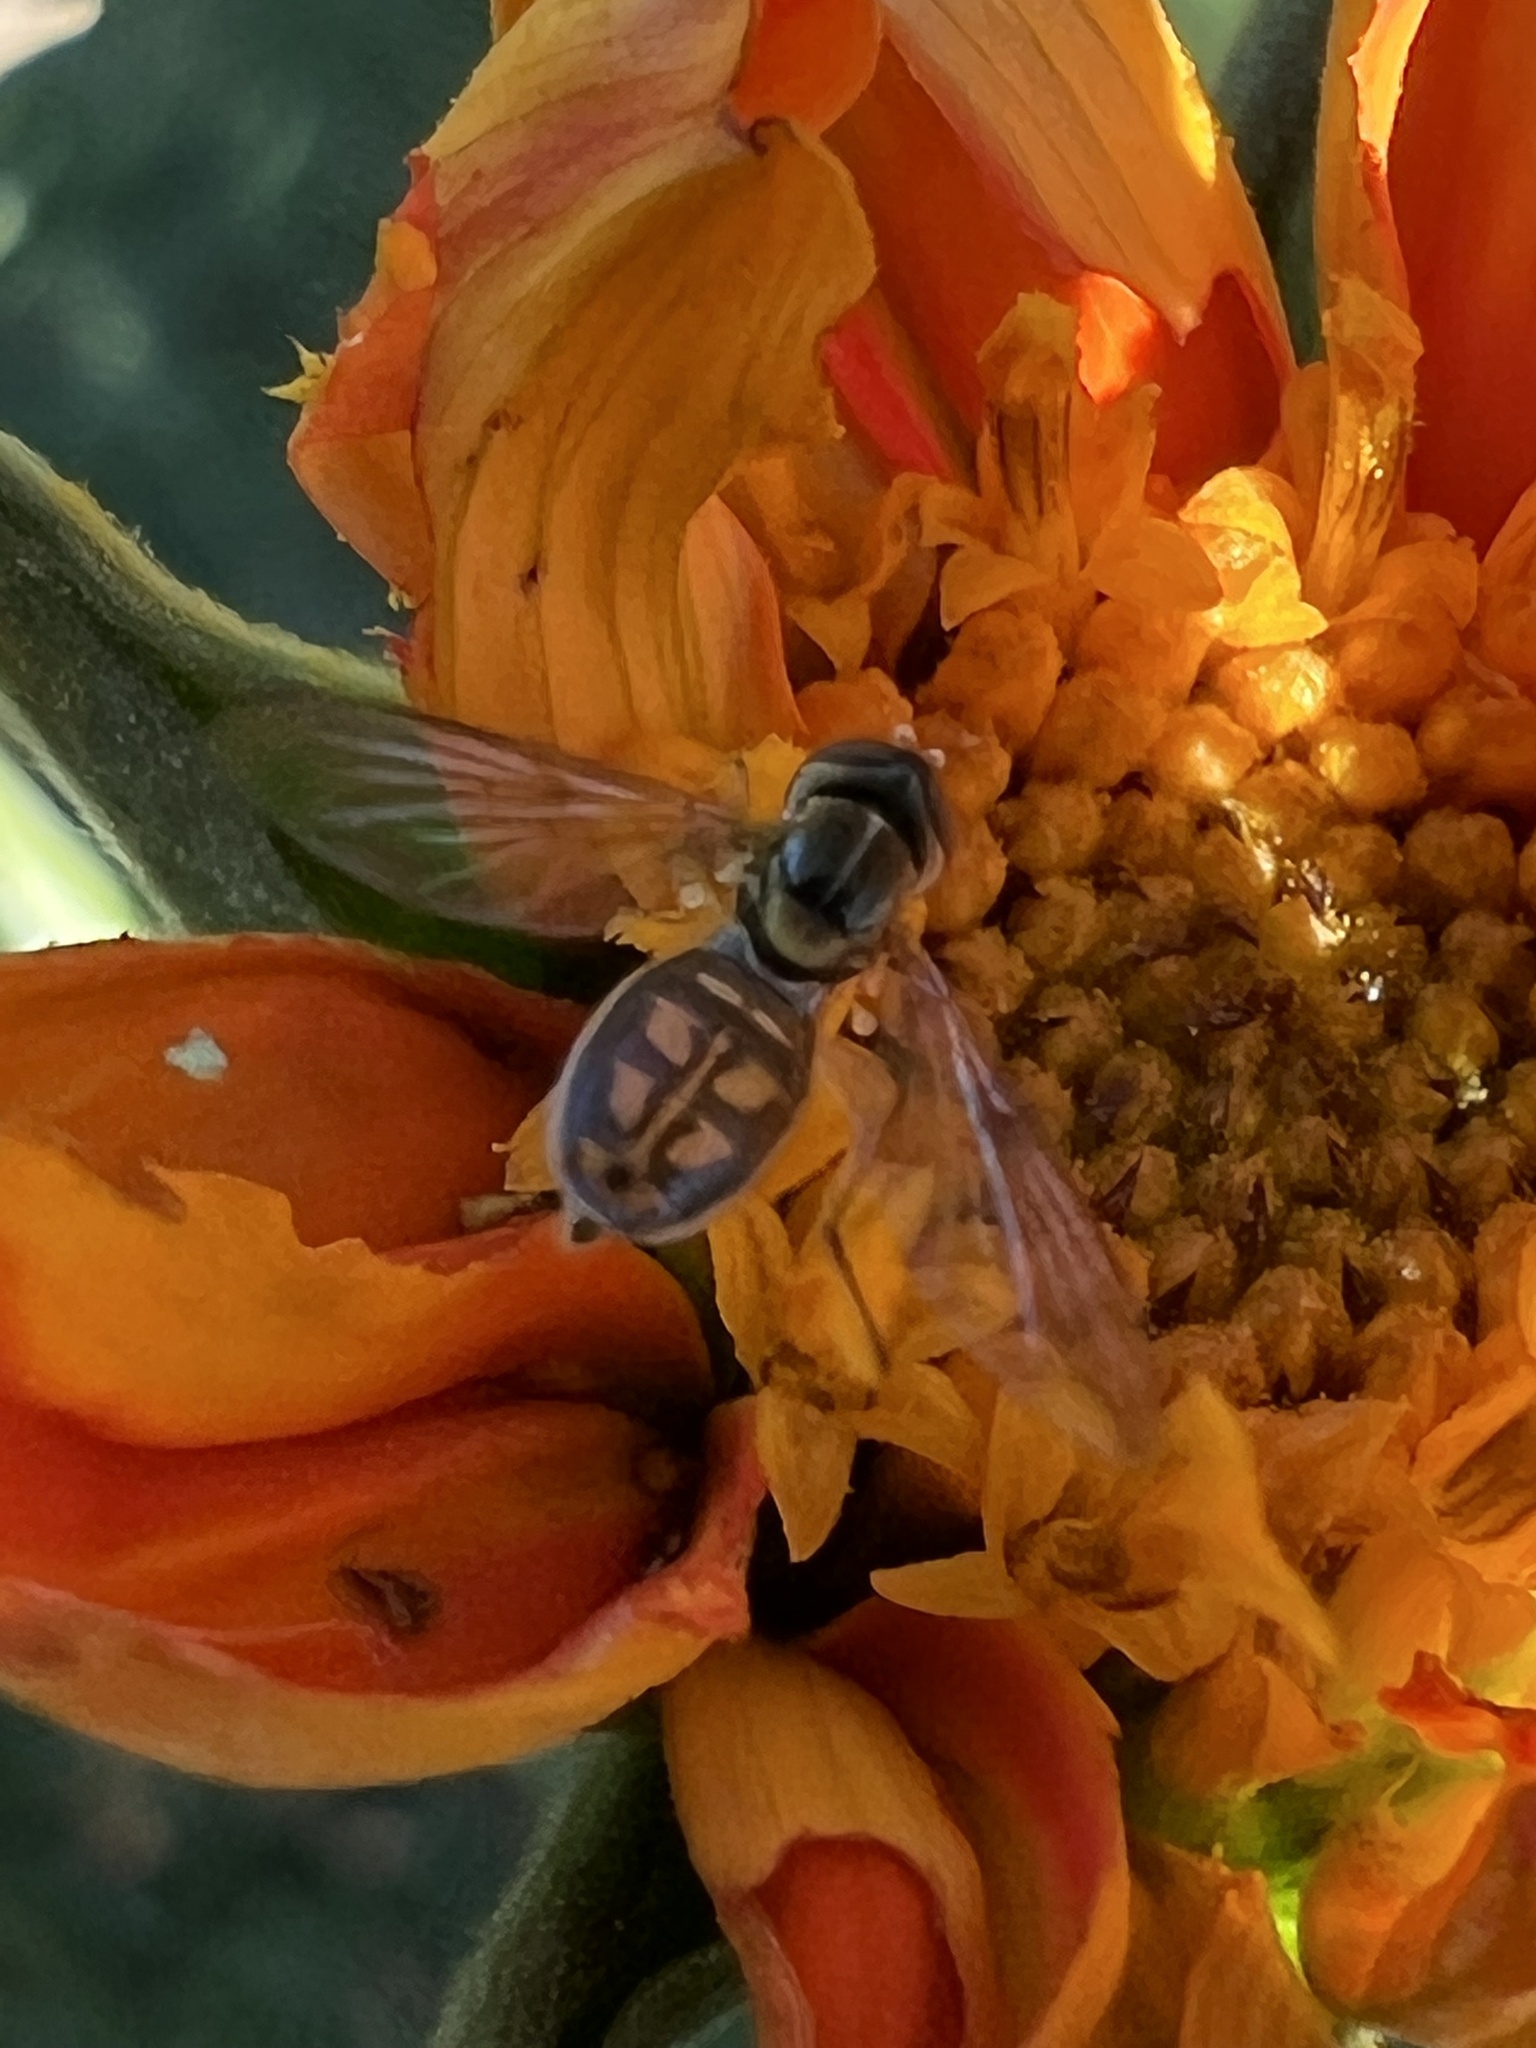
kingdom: Animalia
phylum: Arthropoda
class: Insecta
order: Diptera
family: Syrphidae
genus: Toxomerus
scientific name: Toxomerus marginatus
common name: Syrphid fly
